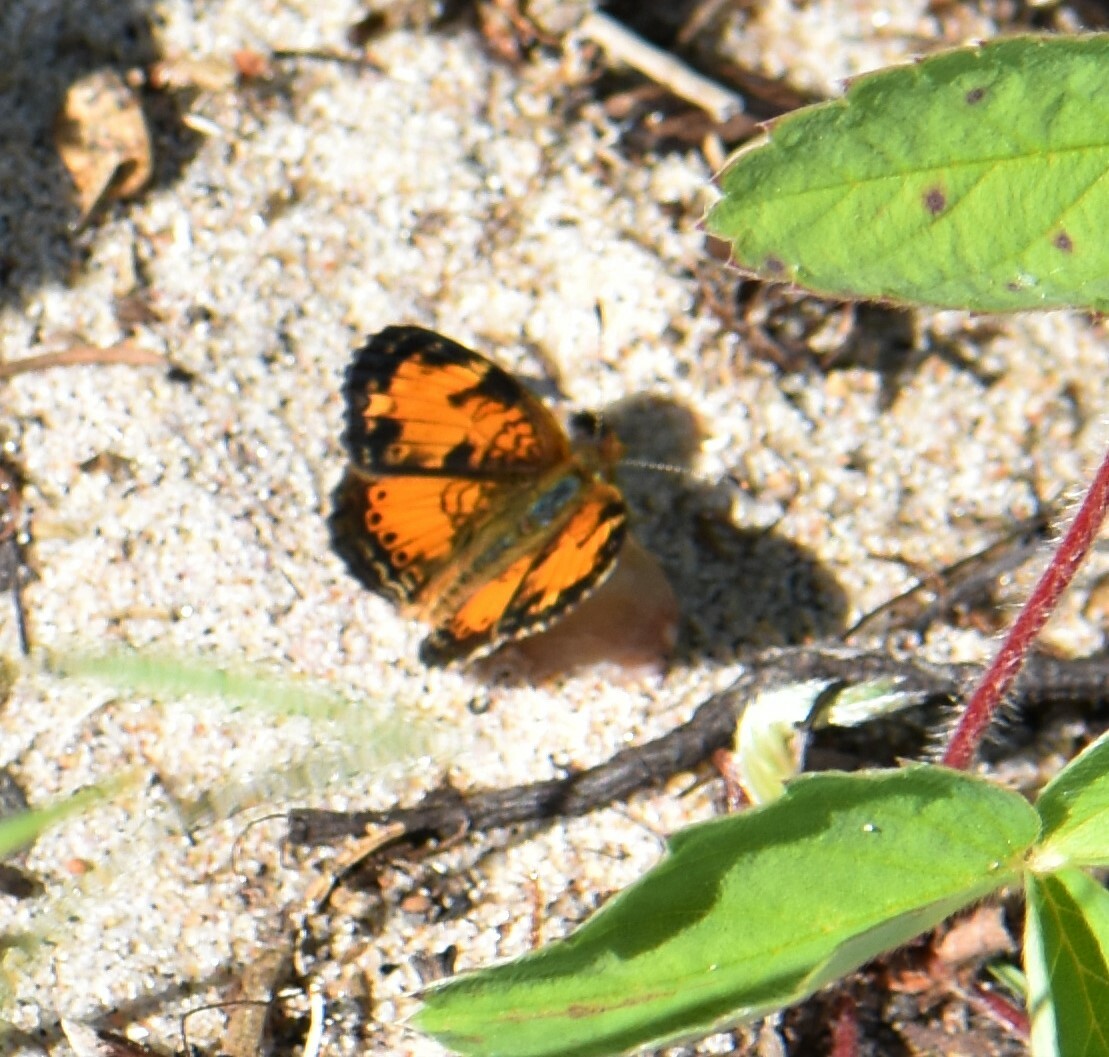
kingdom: Animalia
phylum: Arthropoda
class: Insecta
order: Lepidoptera
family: Nymphalidae
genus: Phyciodes
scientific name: Phyciodes tharos
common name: Pearl crescent
